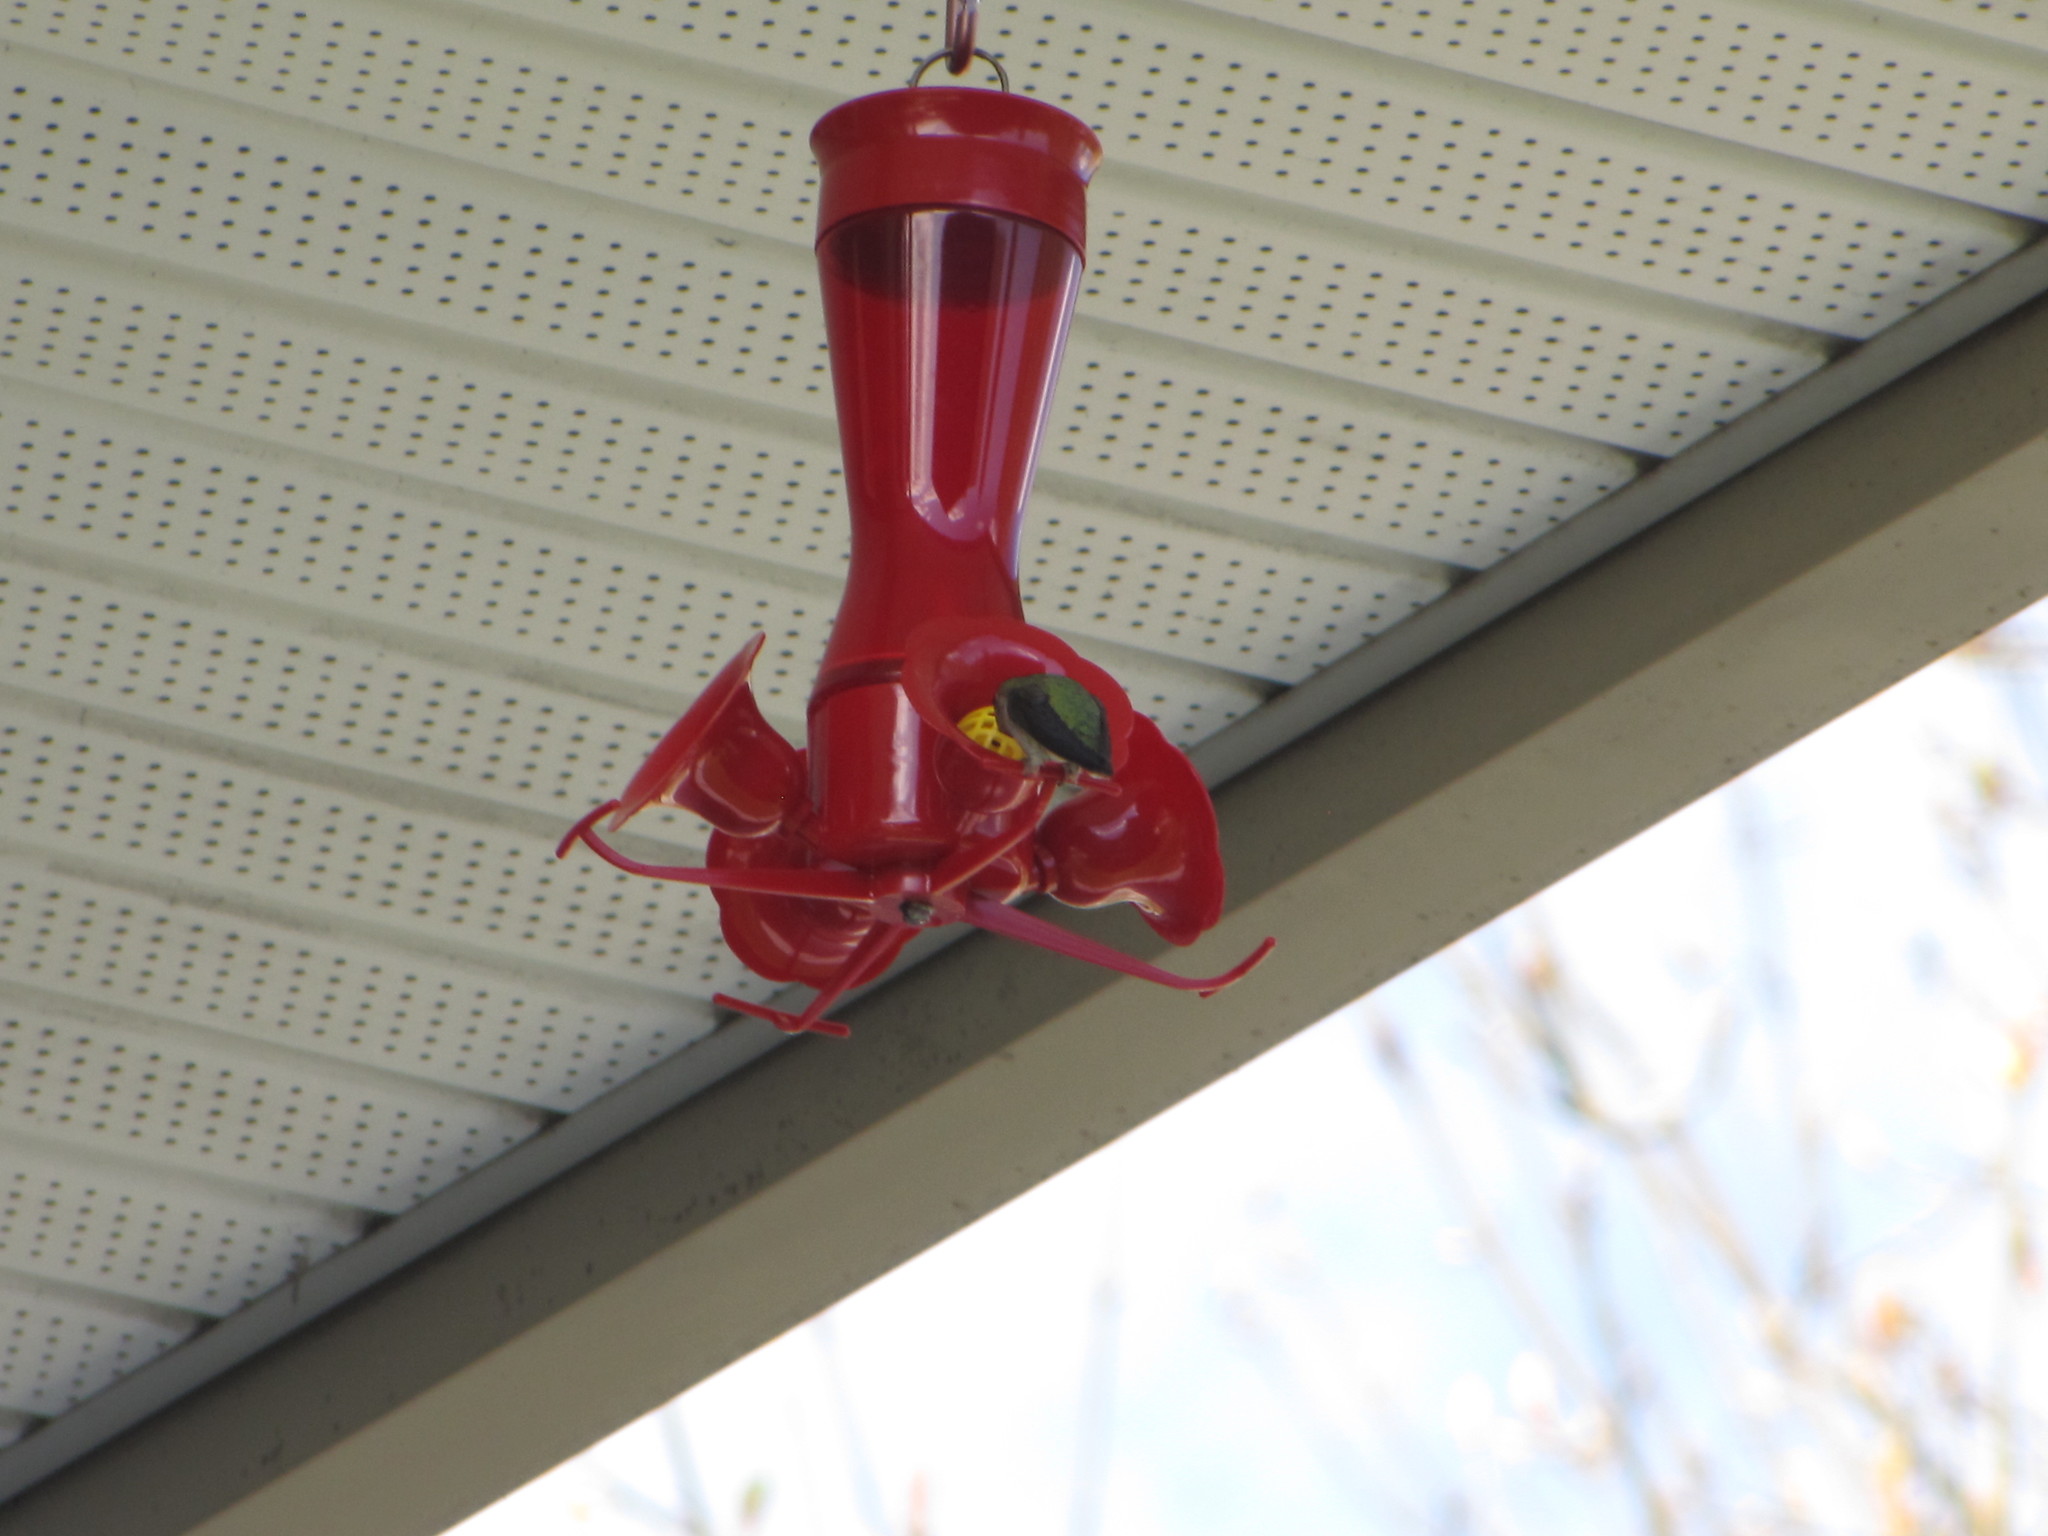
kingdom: Animalia
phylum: Chordata
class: Aves
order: Apodiformes
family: Trochilidae
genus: Calypte
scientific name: Calypte anna
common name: Anna's hummingbird
